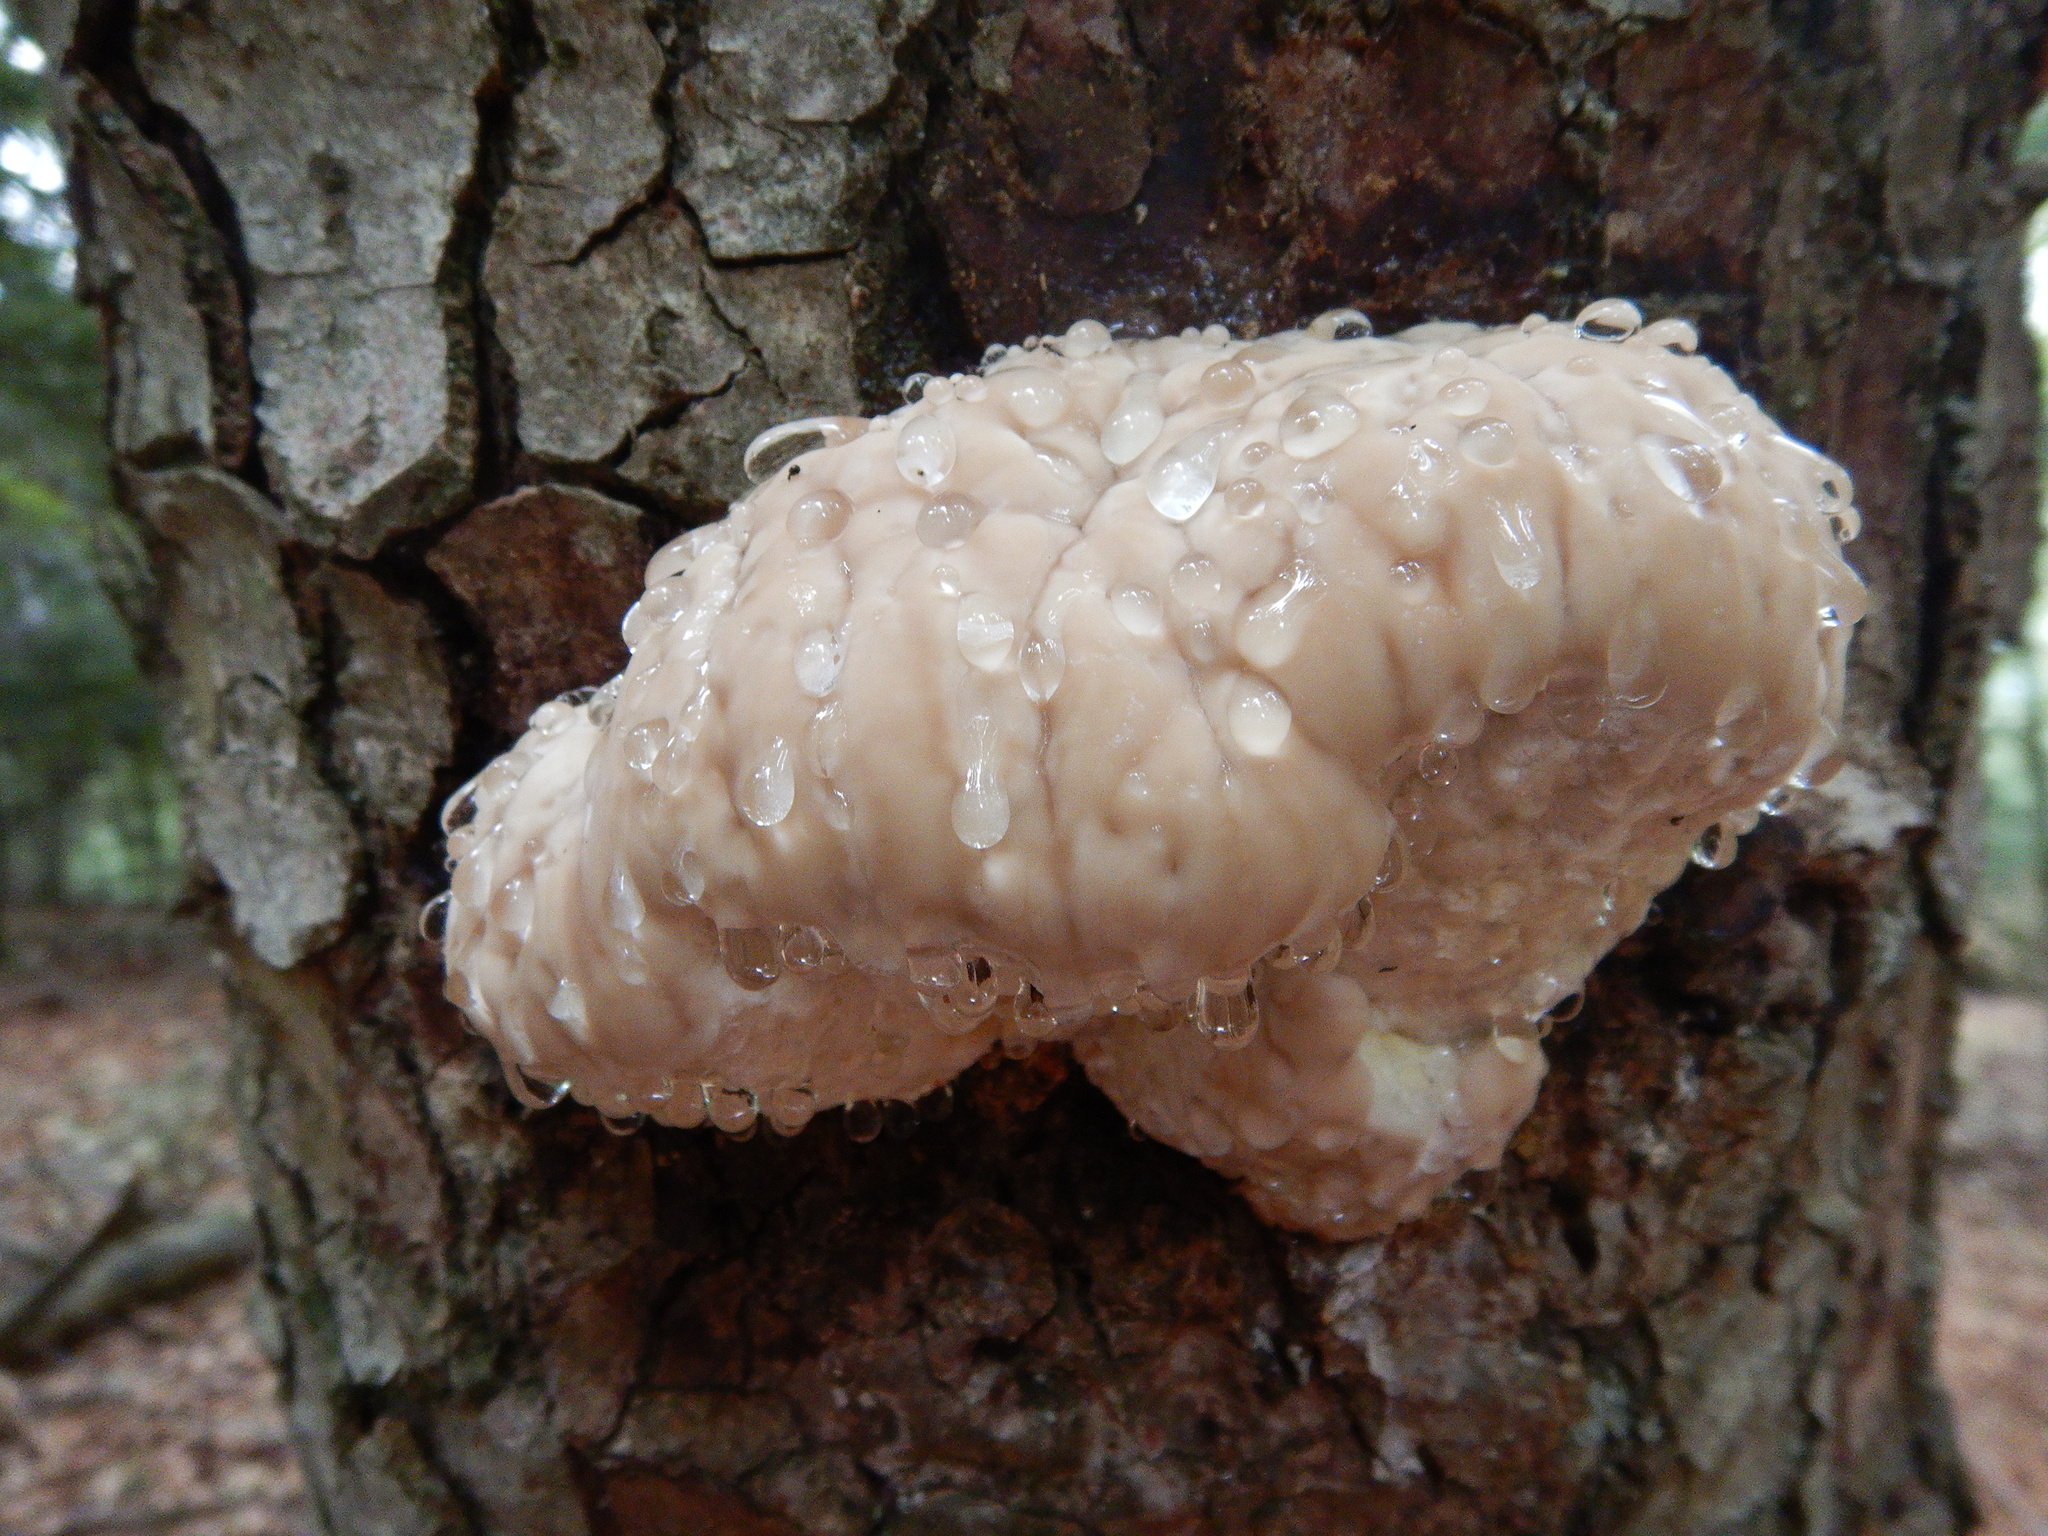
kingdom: Fungi
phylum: Basidiomycota
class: Agaricomycetes
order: Polyporales
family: Fomitopsidaceae
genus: Fomitopsis
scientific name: Fomitopsis pinicola
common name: Red-belted bracket
